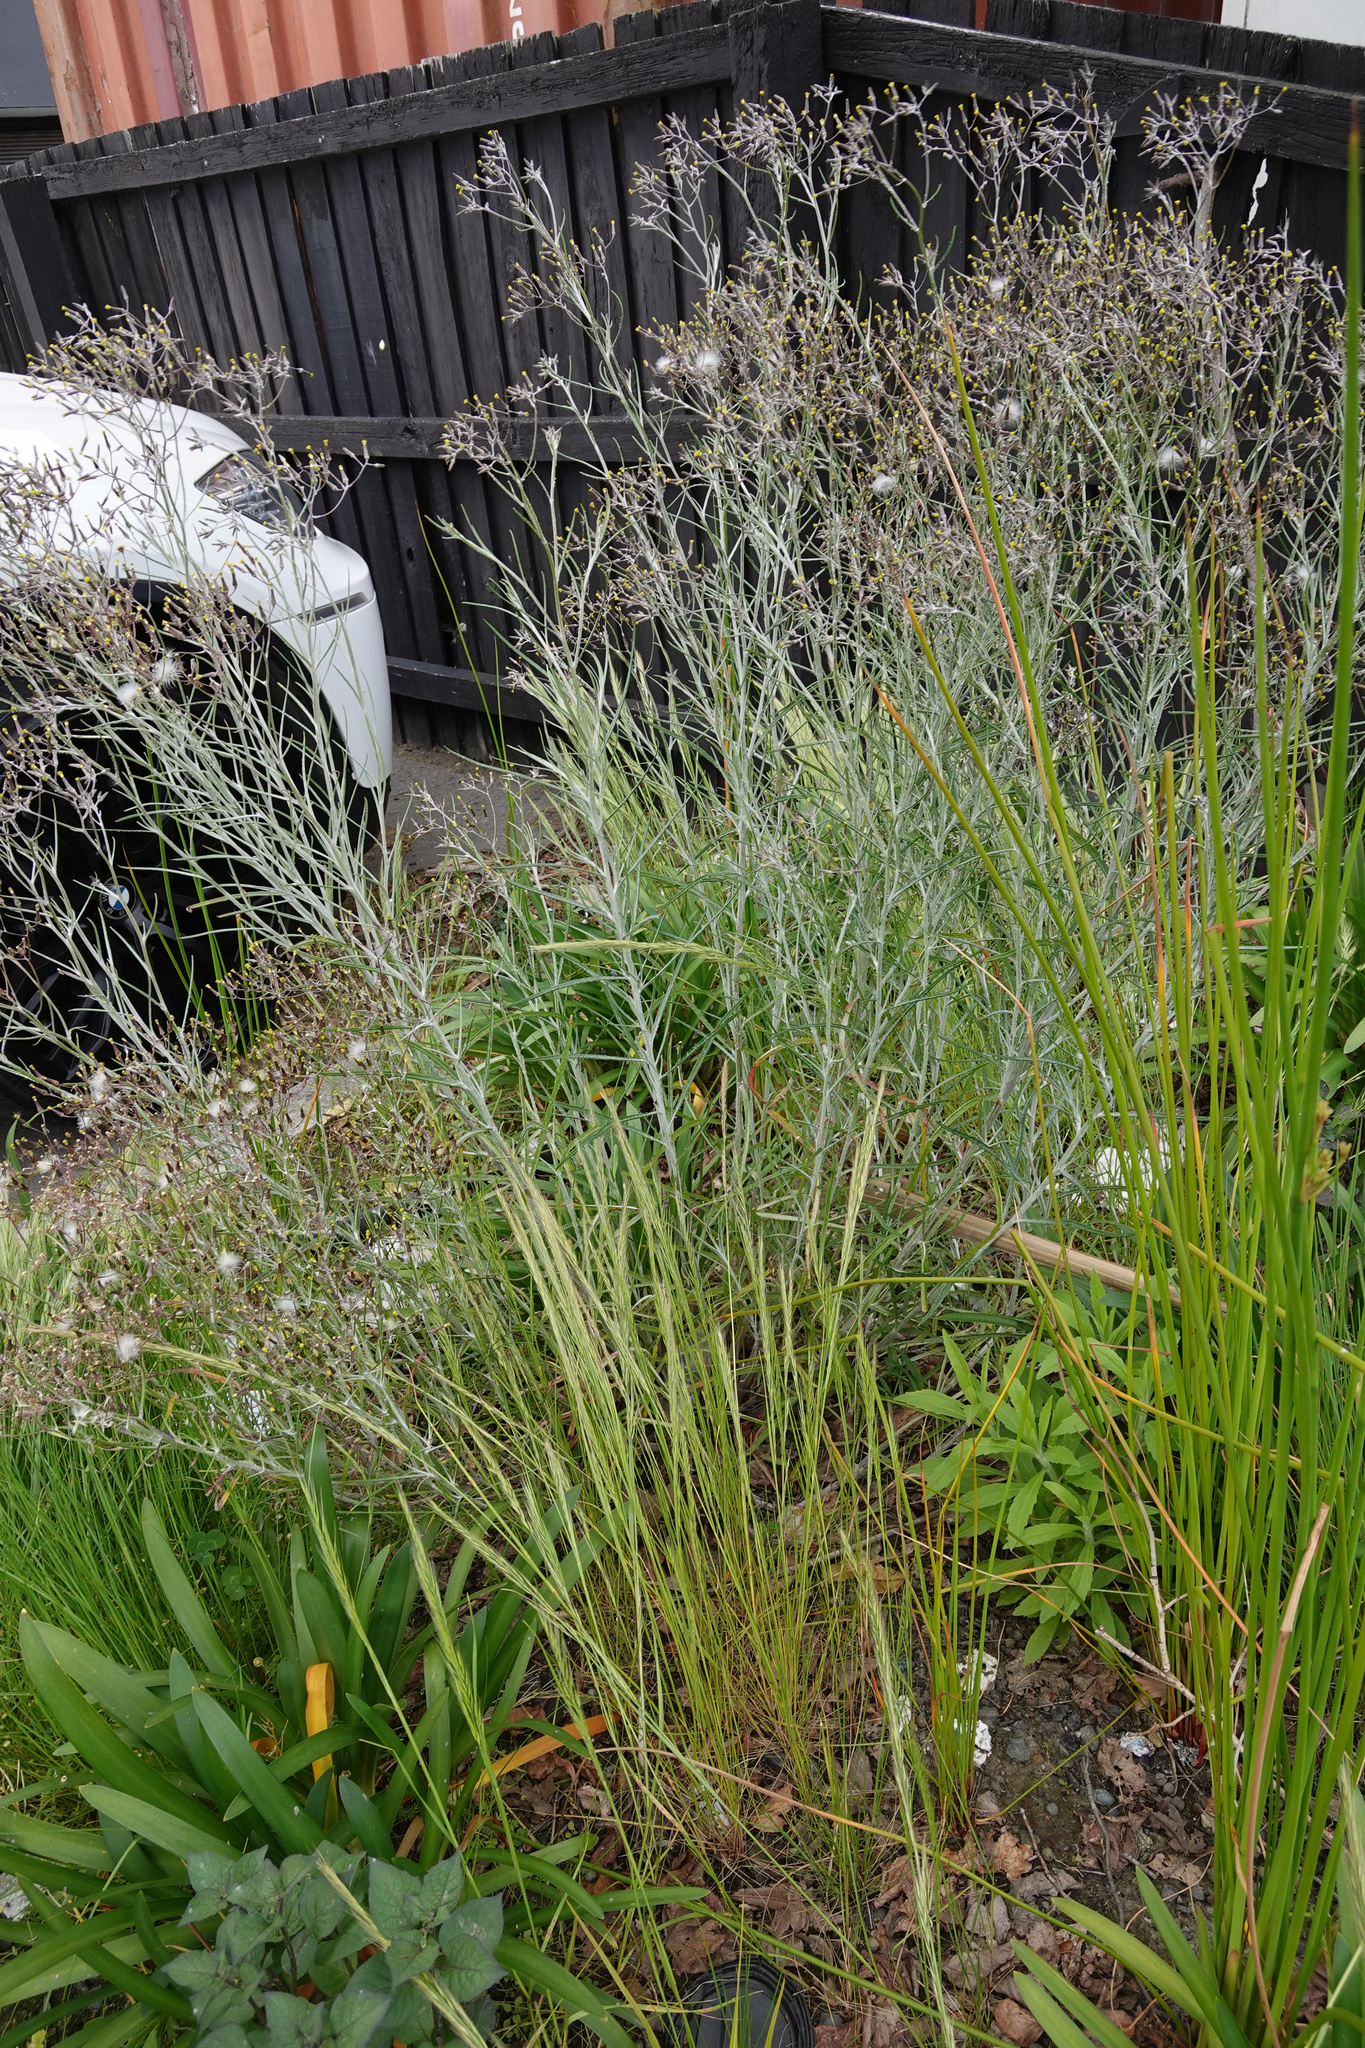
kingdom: Plantae
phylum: Tracheophyta
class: Magnoliopsida
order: Asterales
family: Asteraceae
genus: Senecio
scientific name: Senecio quadridentatus
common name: Cotton fireweed
